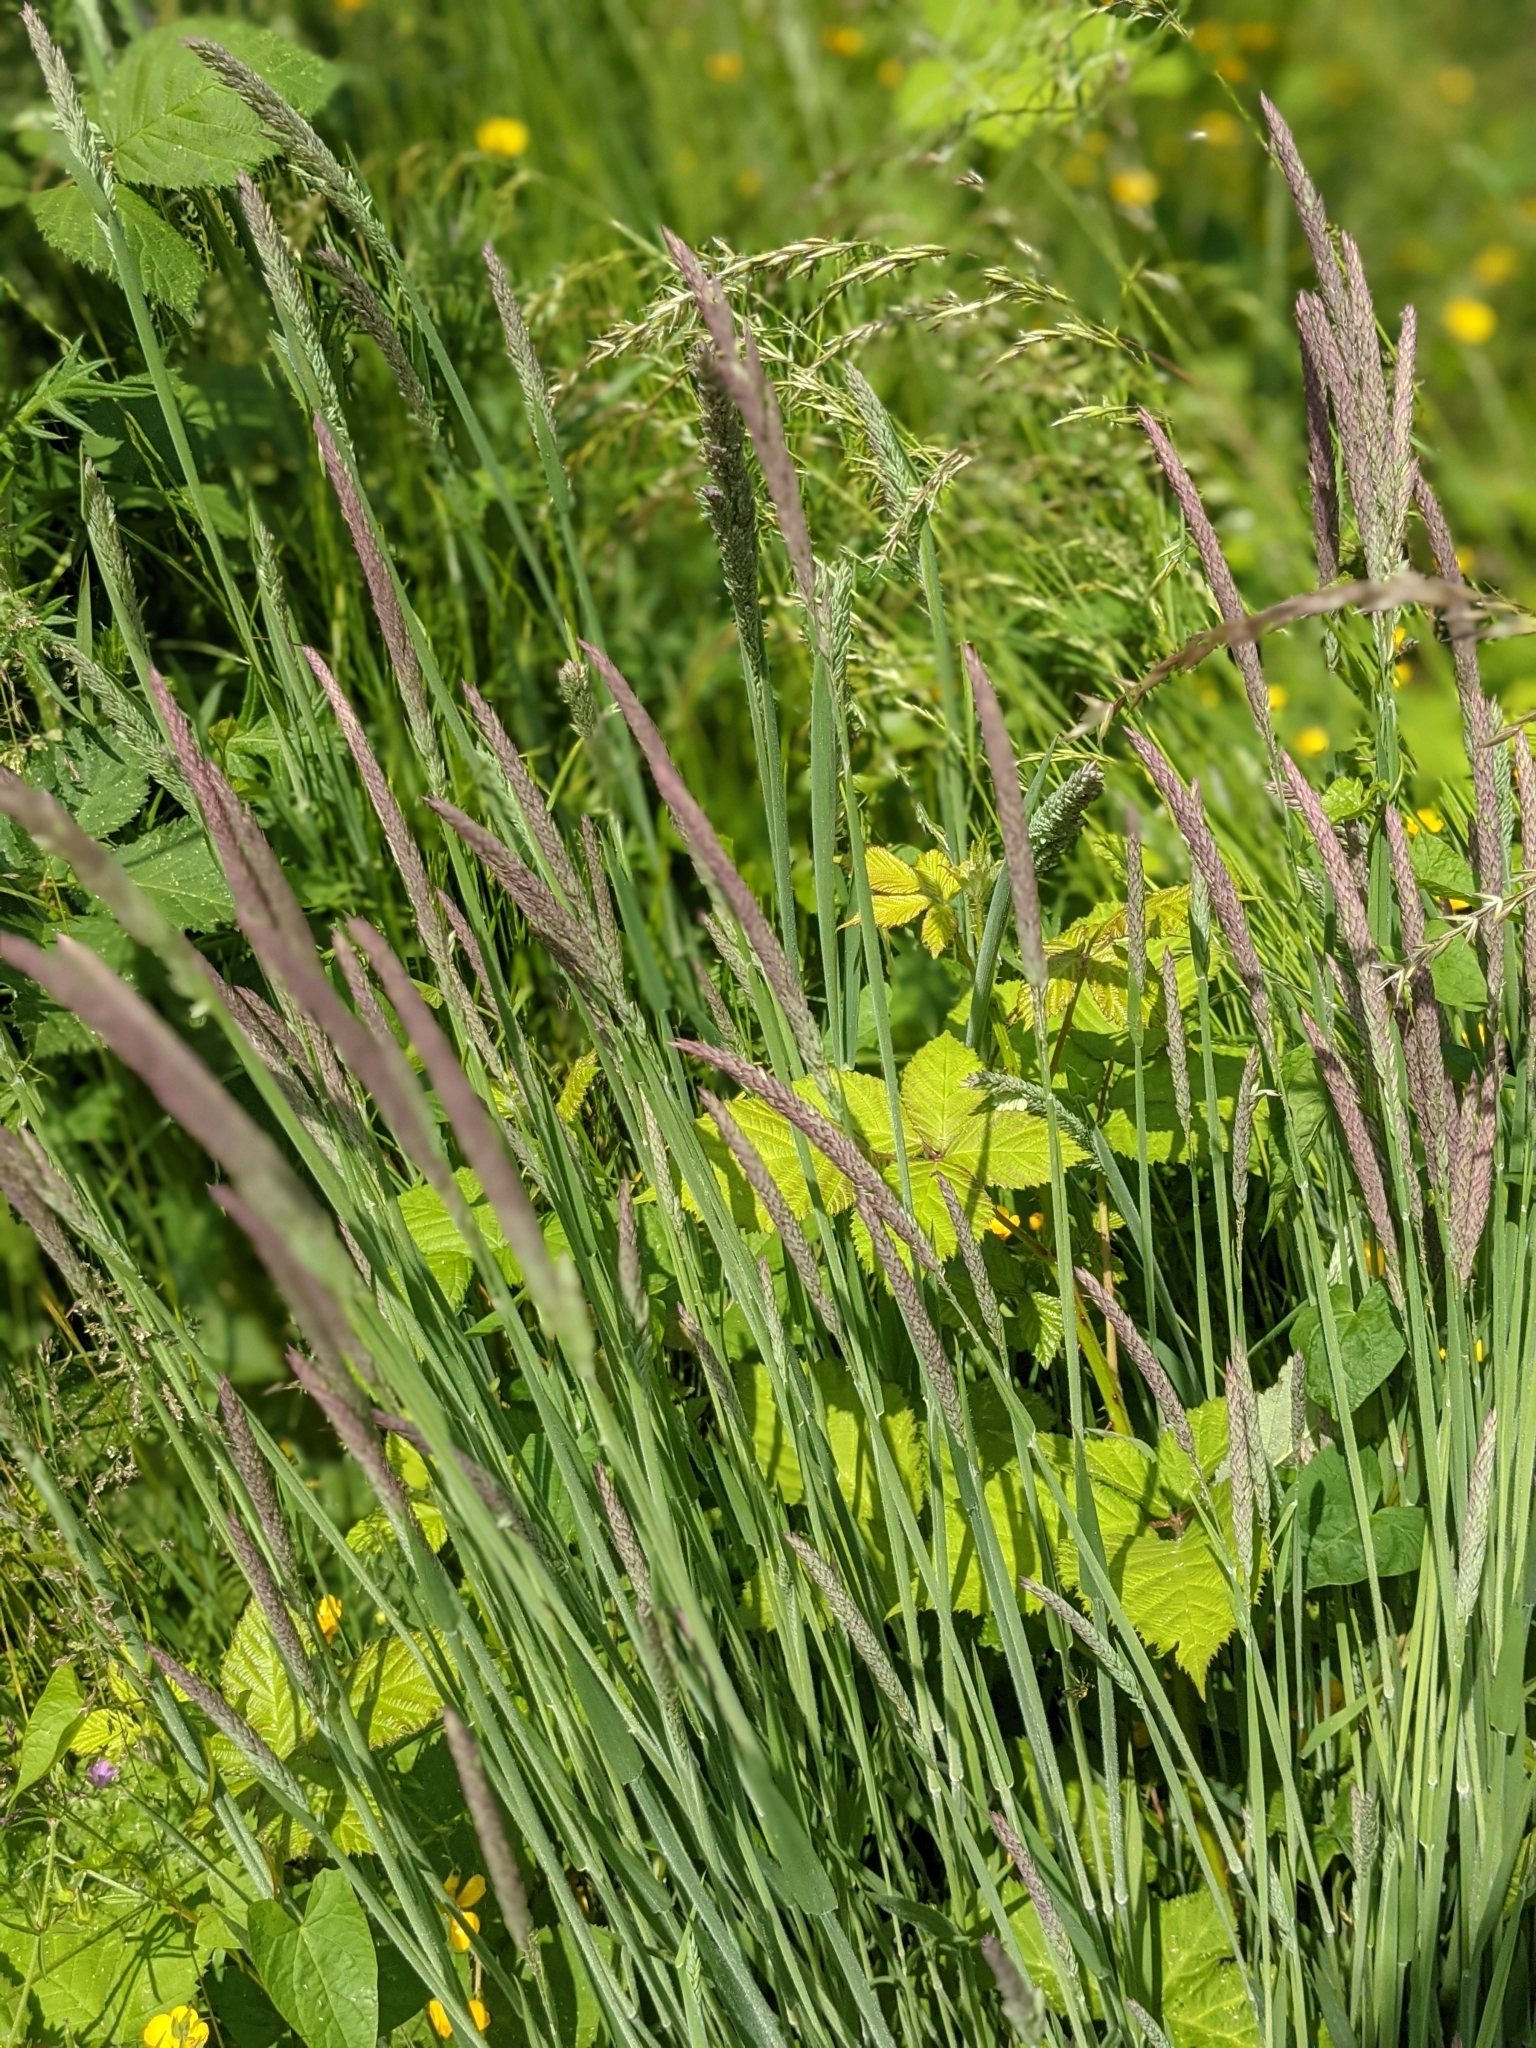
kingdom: Plantae
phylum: Tracheophyta
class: Liliopsida
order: Poales
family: Poaceae
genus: Holcus
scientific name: Holcus lanatus
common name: Yorkshire-fog
